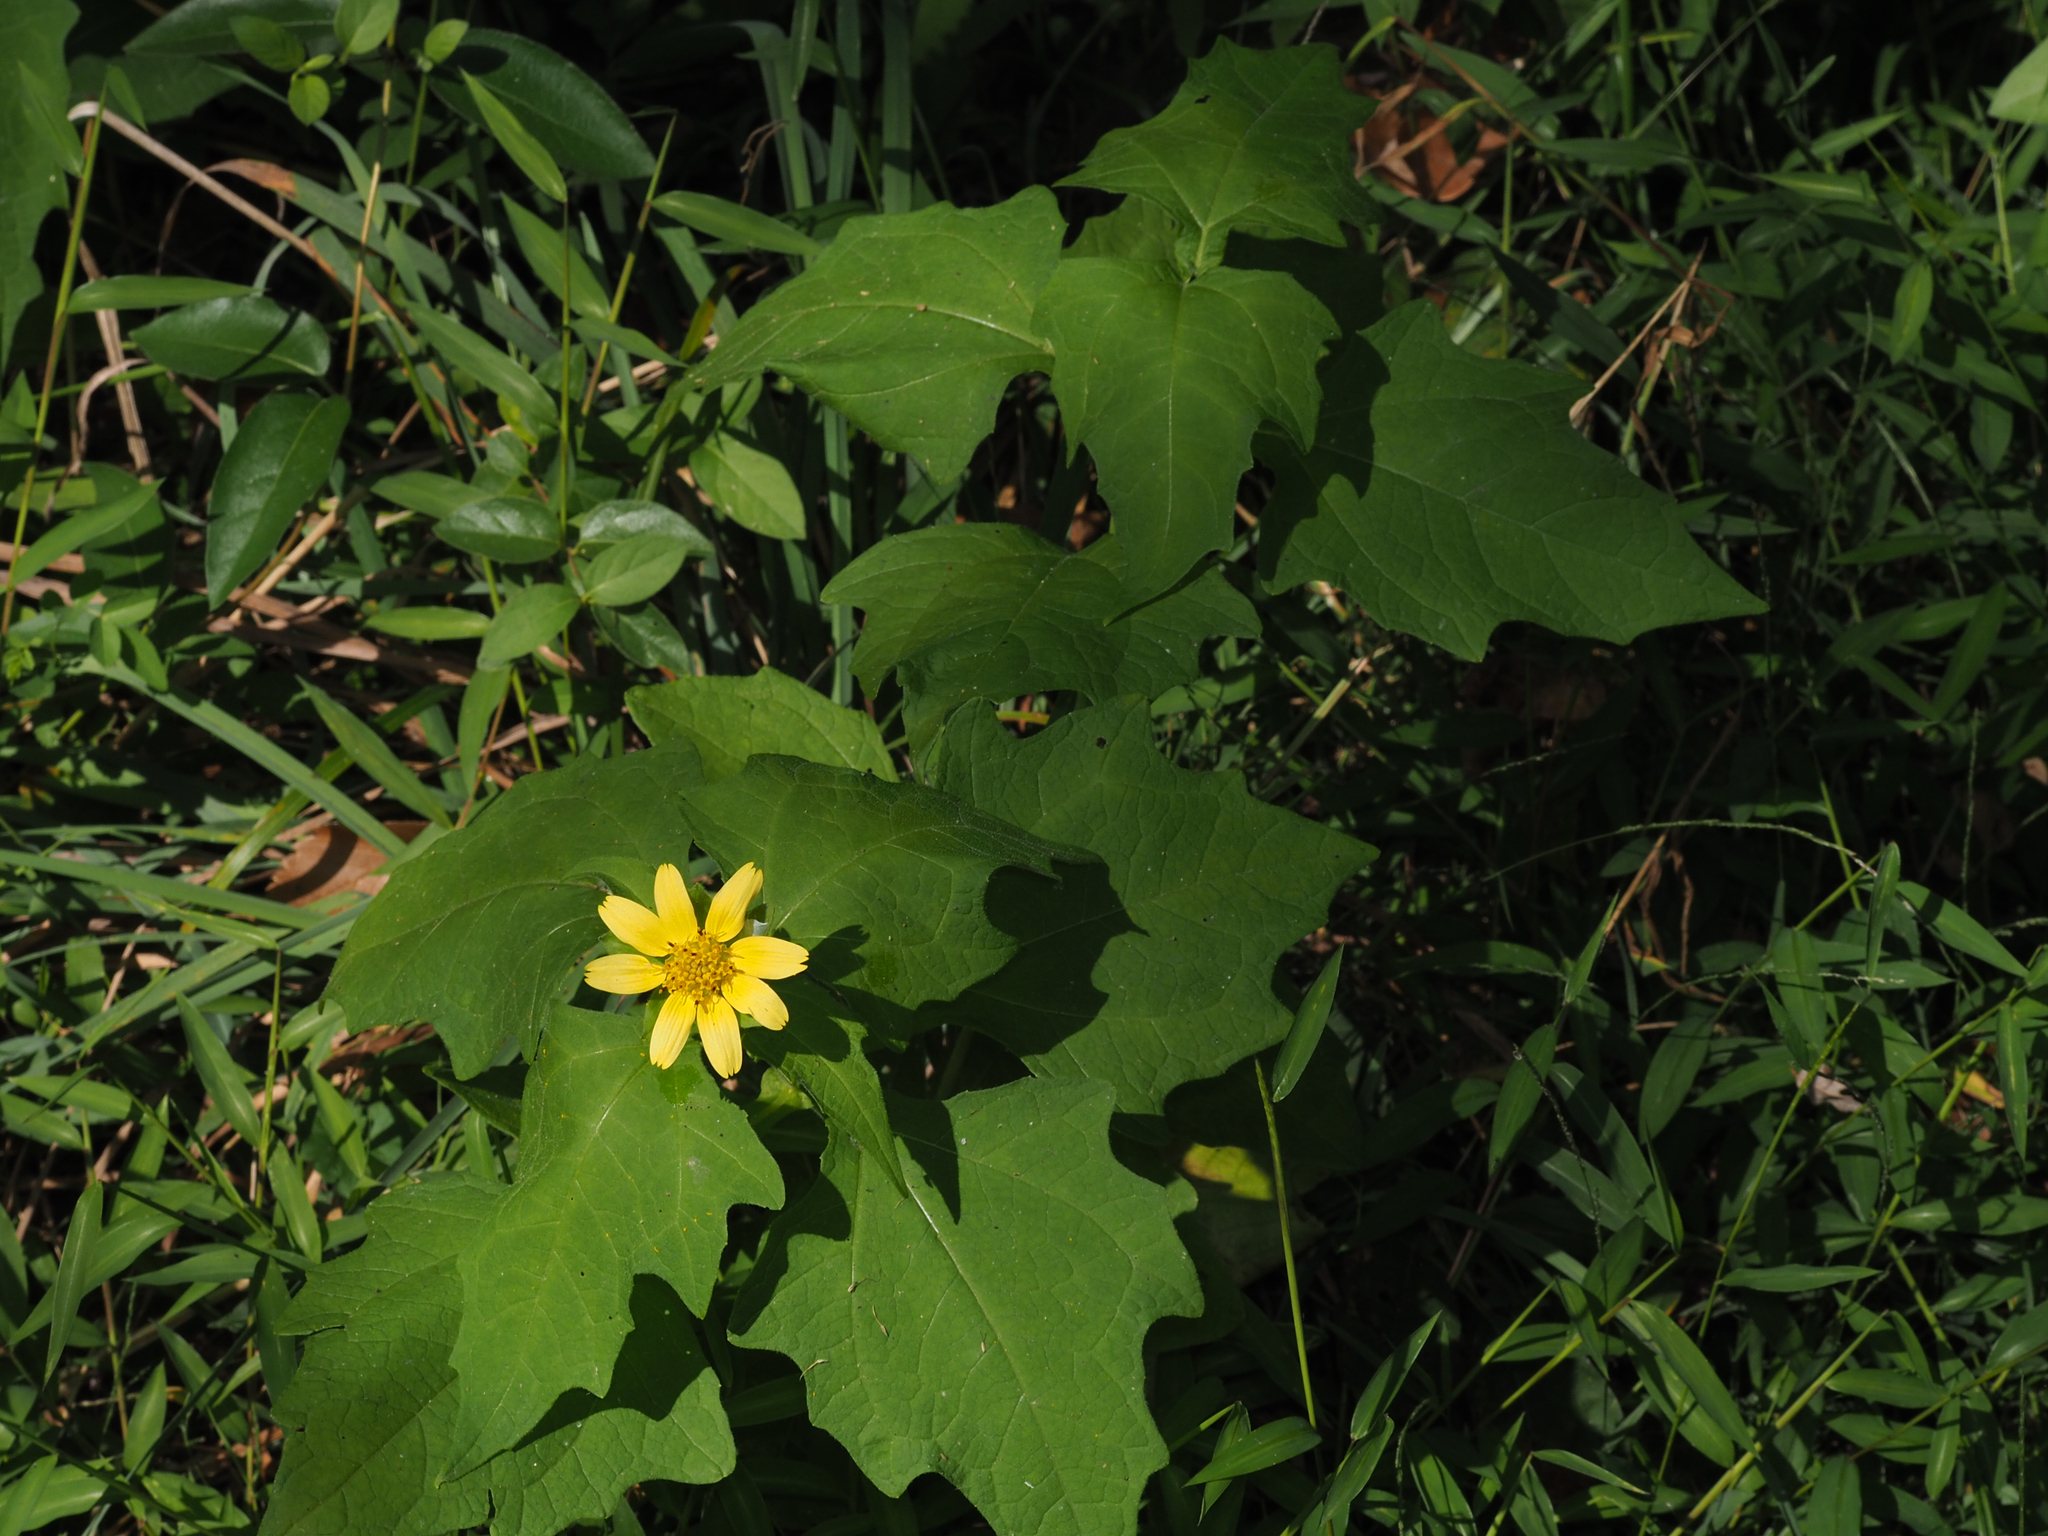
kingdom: Plantae
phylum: Tracheophyta
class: Magnoliopsida
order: Asterales
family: Asteraceae
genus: Smallanthus
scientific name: Smallanthus uvedalia
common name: Bear's-foot
